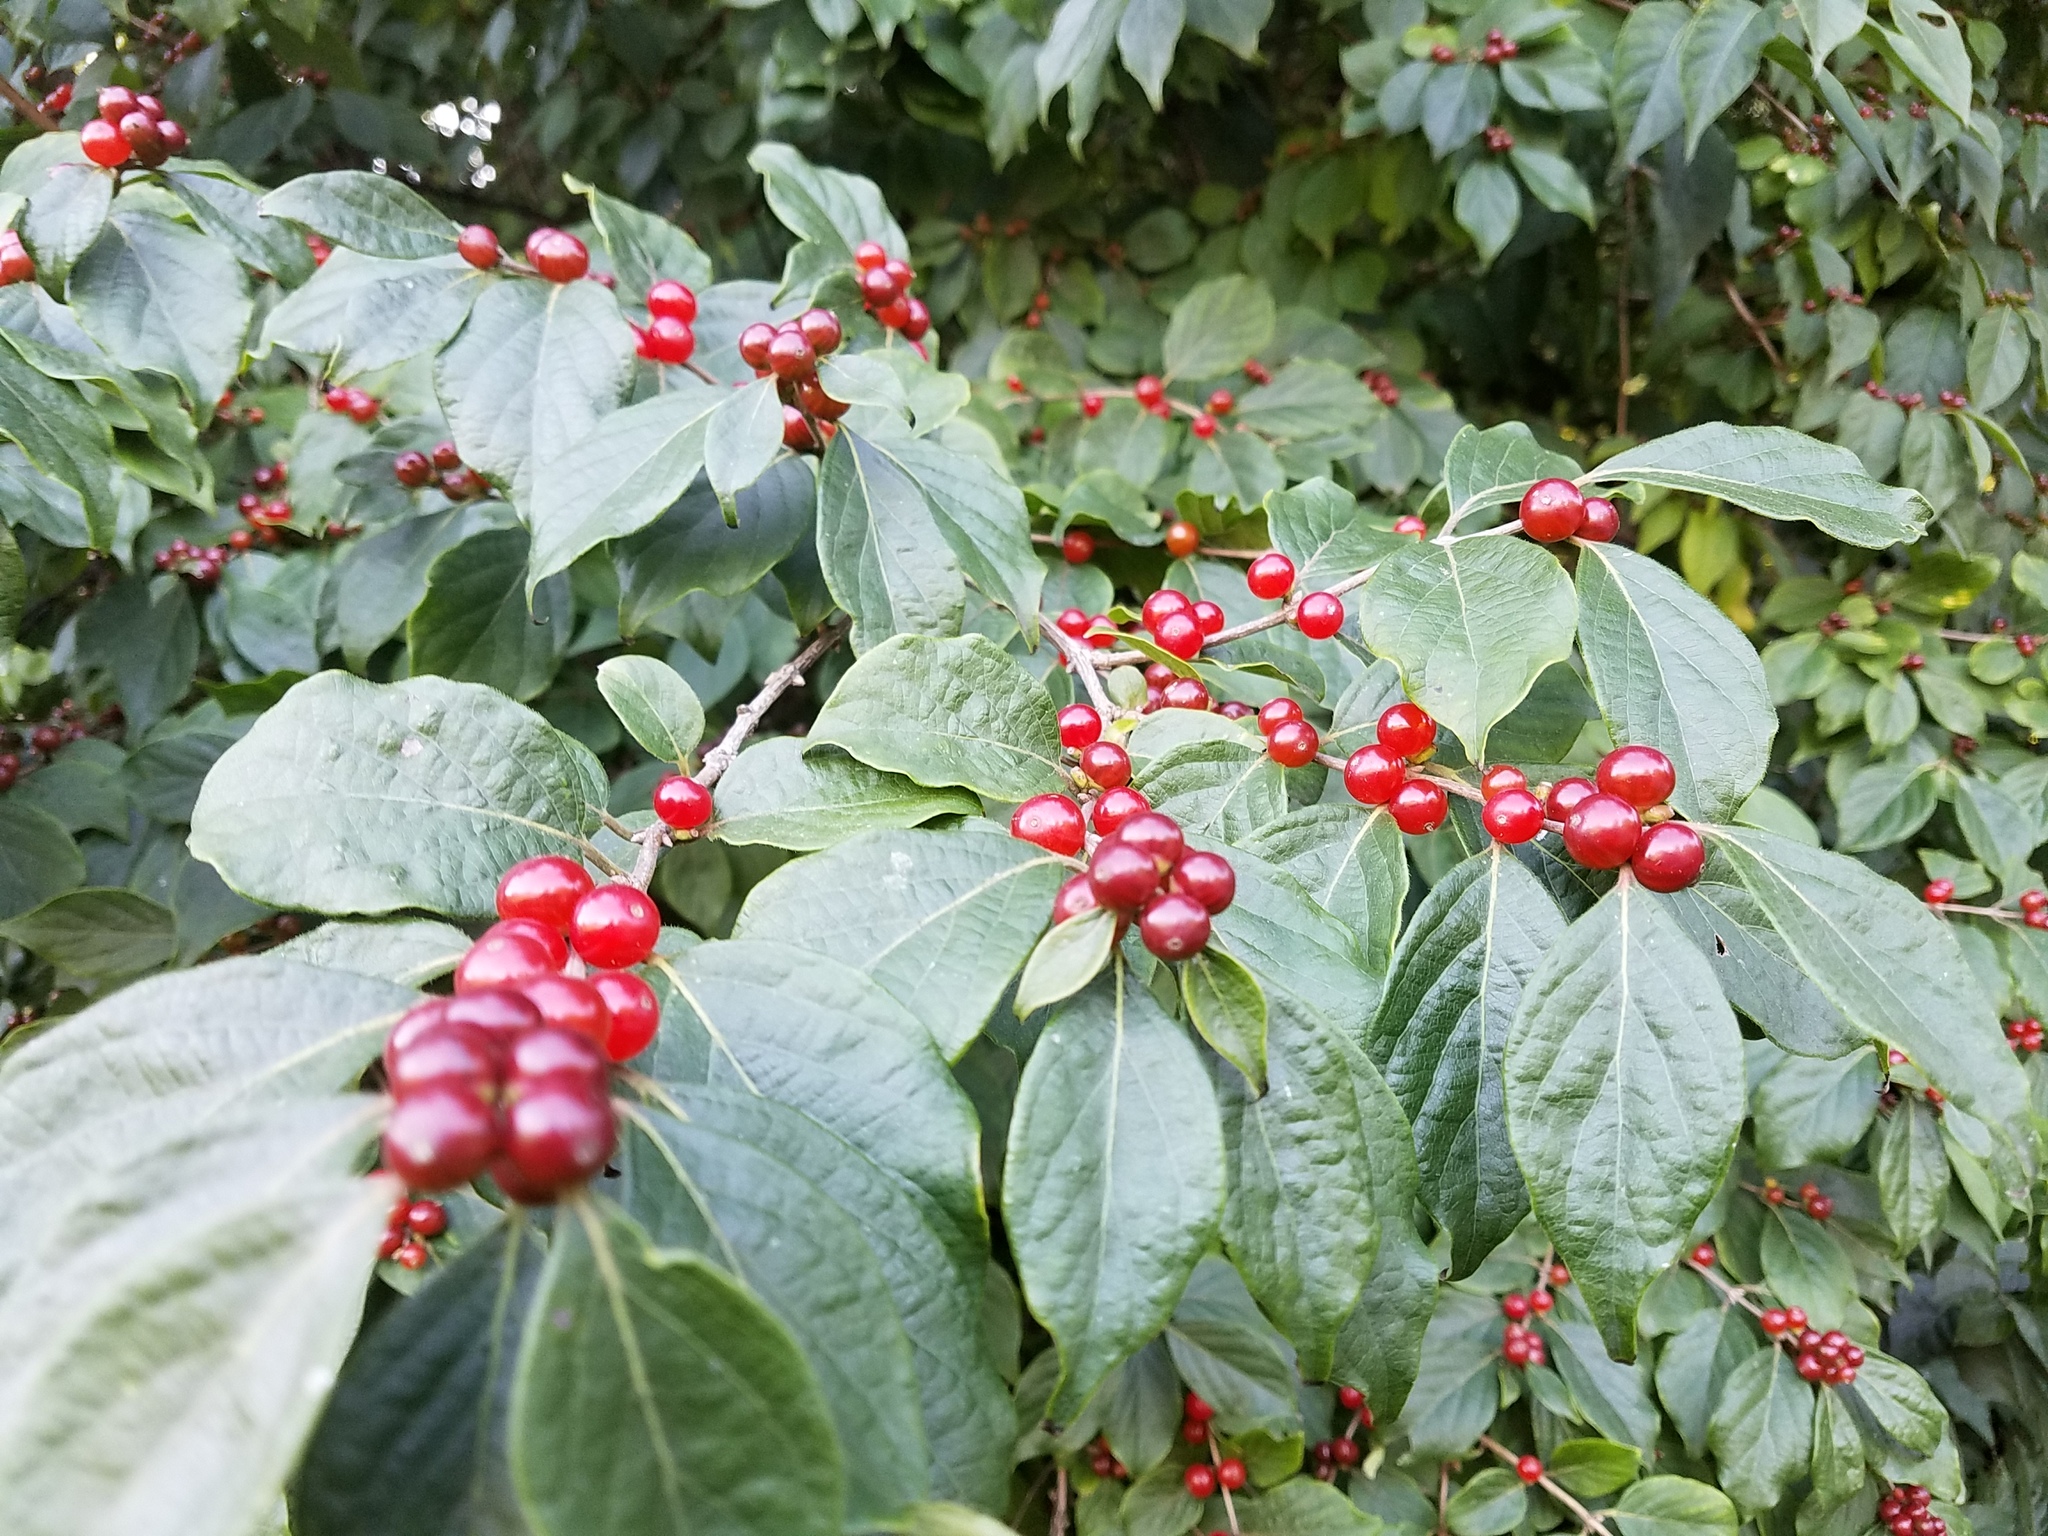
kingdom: Plantae
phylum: Tracheophyta
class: Magnoliopsida
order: Dipsacales
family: Caprifoliaceae
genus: Lonicera
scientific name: Lonicera maackii
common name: Amur honeysuckle
